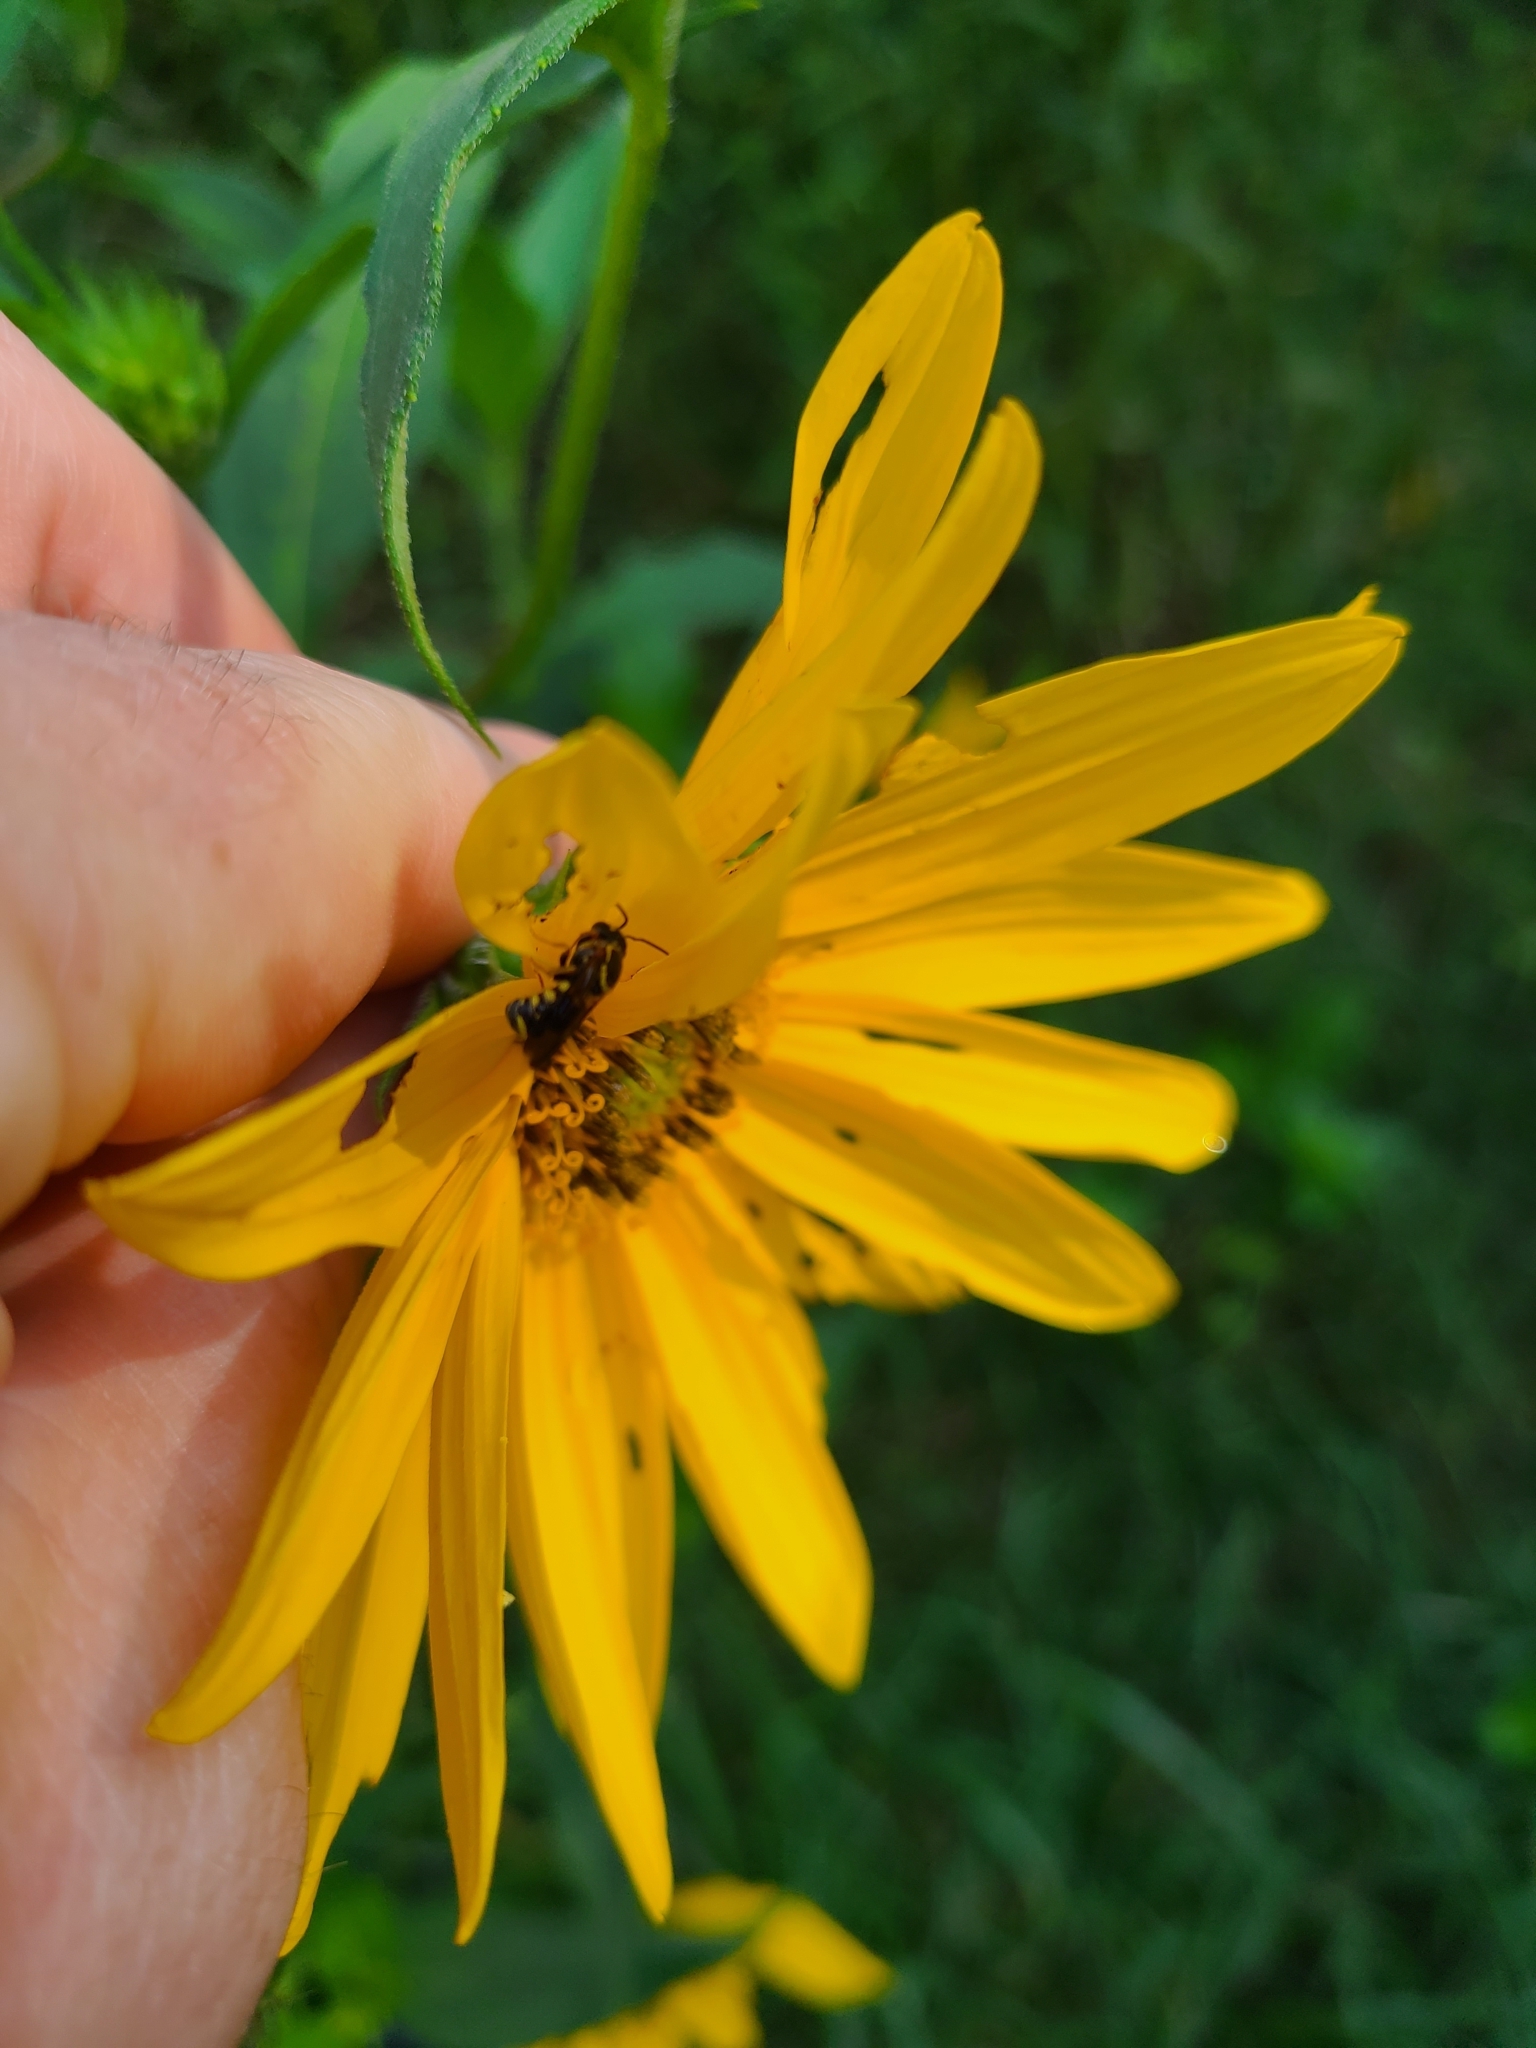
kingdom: Animalia
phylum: Arthropoda
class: Insecta
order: Hymenoptera
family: Megachilidae
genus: Stelis
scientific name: Stelis louisae
